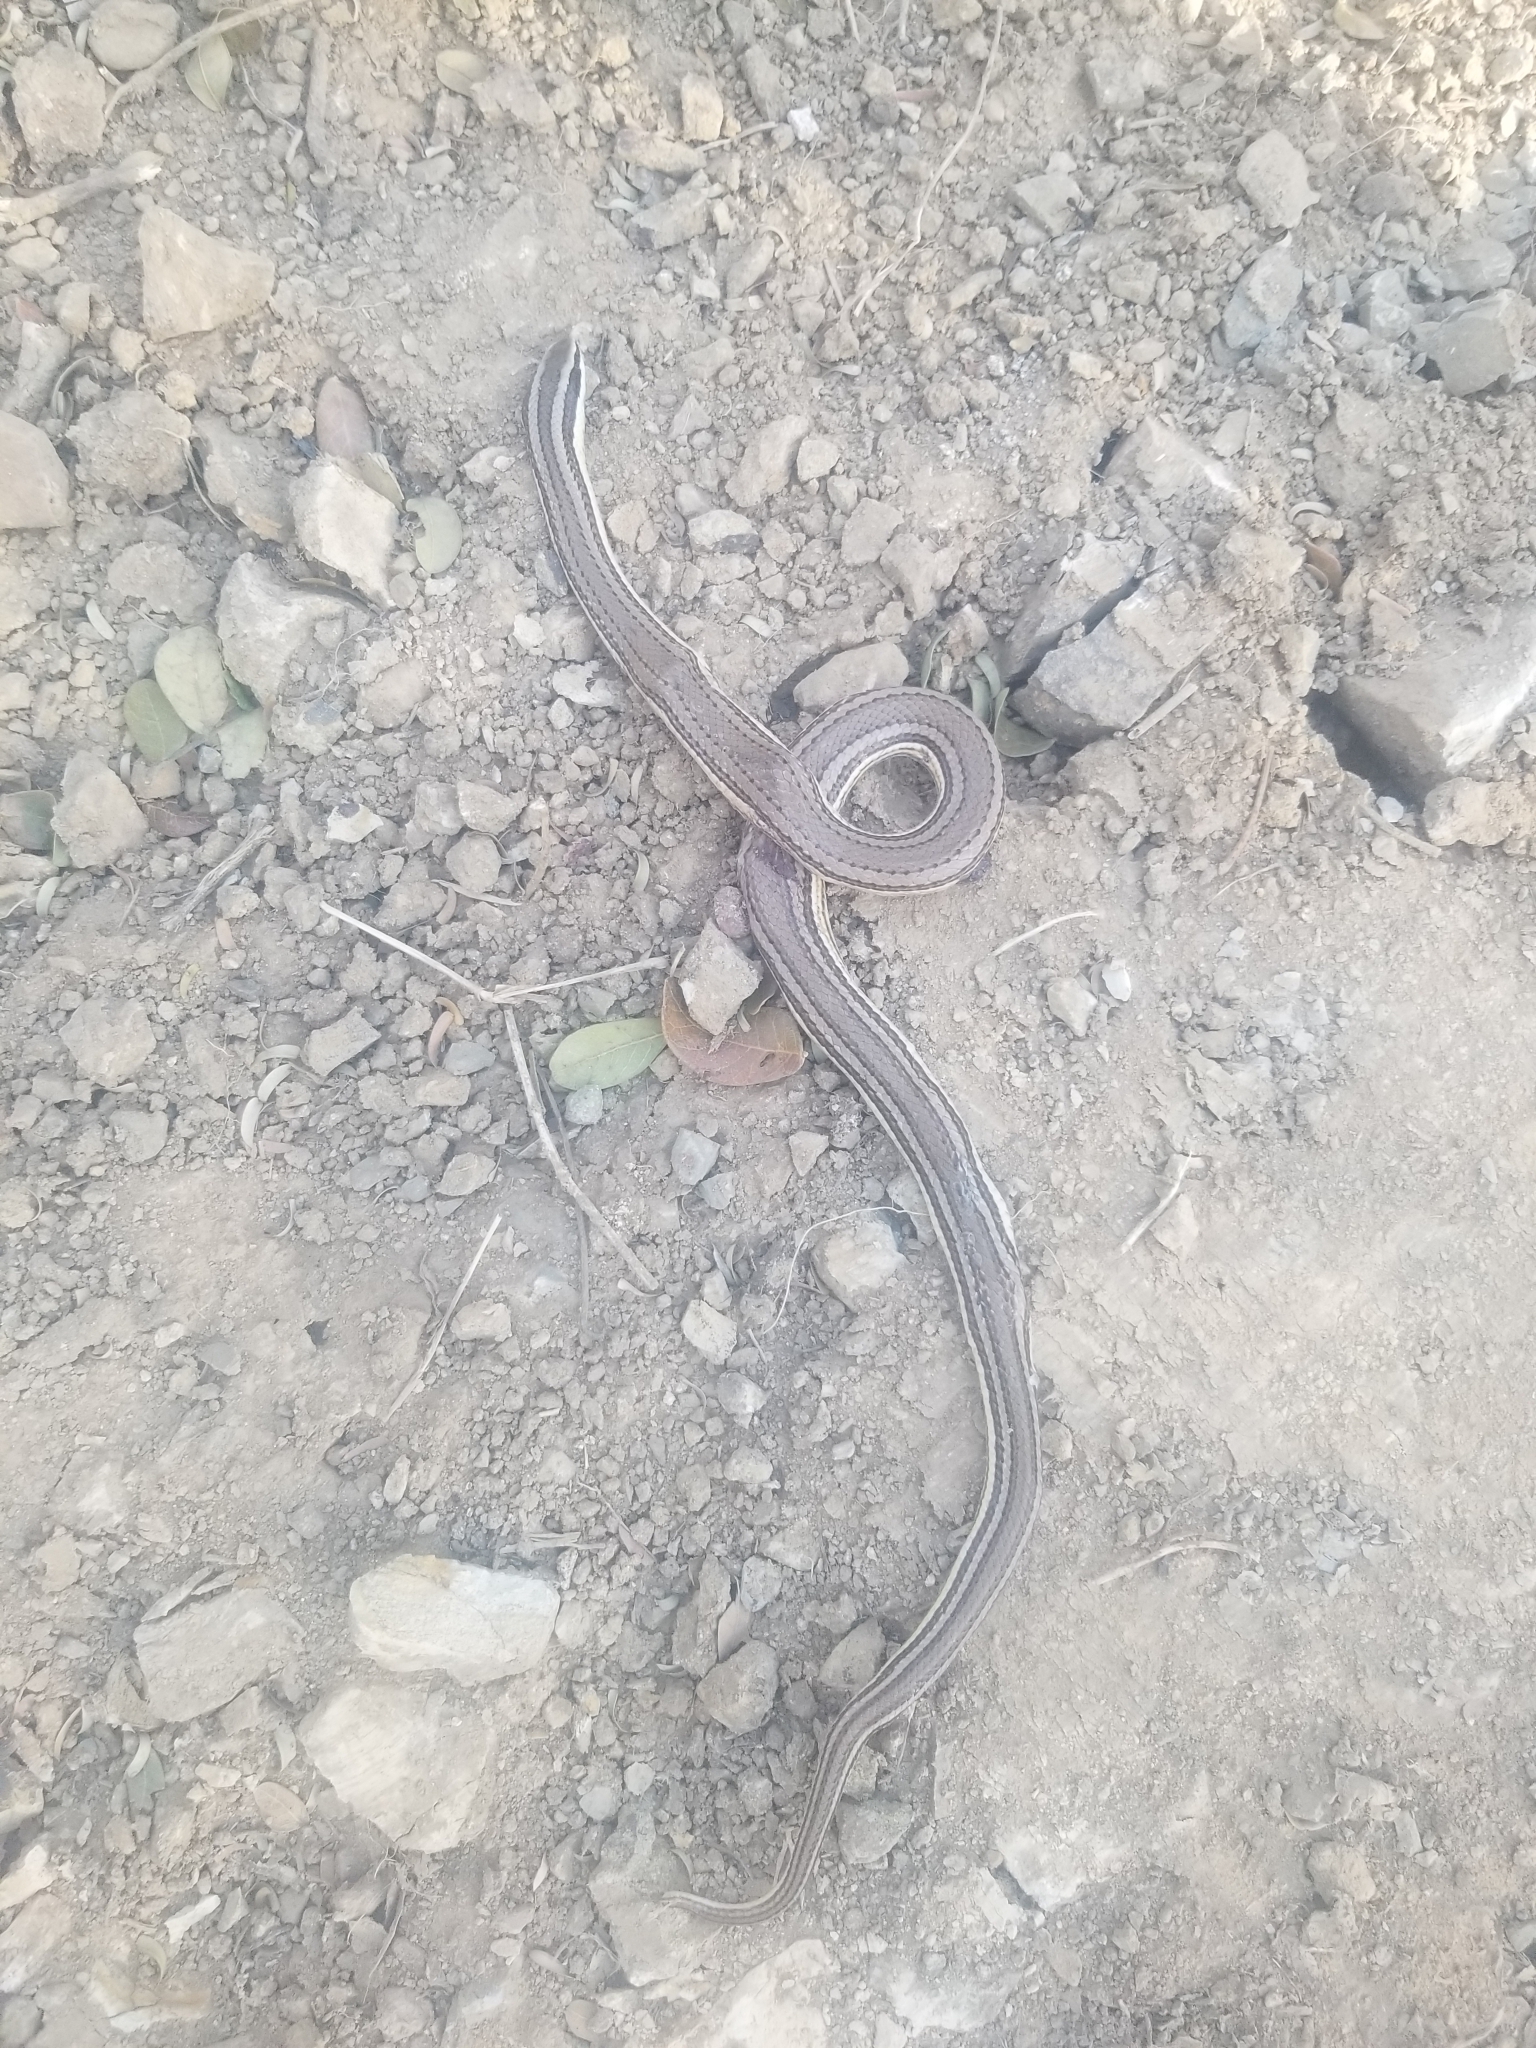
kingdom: Animalia
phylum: Chordata
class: Squamata
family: Colubridae
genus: Conophis
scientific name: Conophis lineatus
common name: Road guarder
